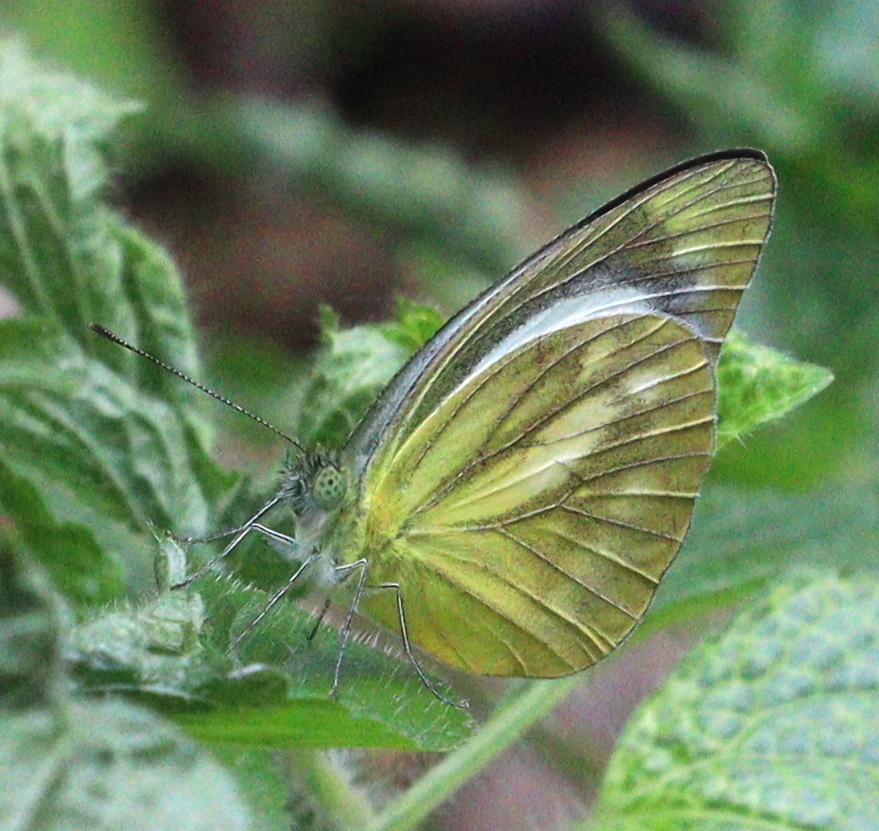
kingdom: Animalia
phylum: Arthropoda
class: Insecta
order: Lepidoptera
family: Pieridae
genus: Cepora
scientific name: Cepora nadina
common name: Lesser gull
